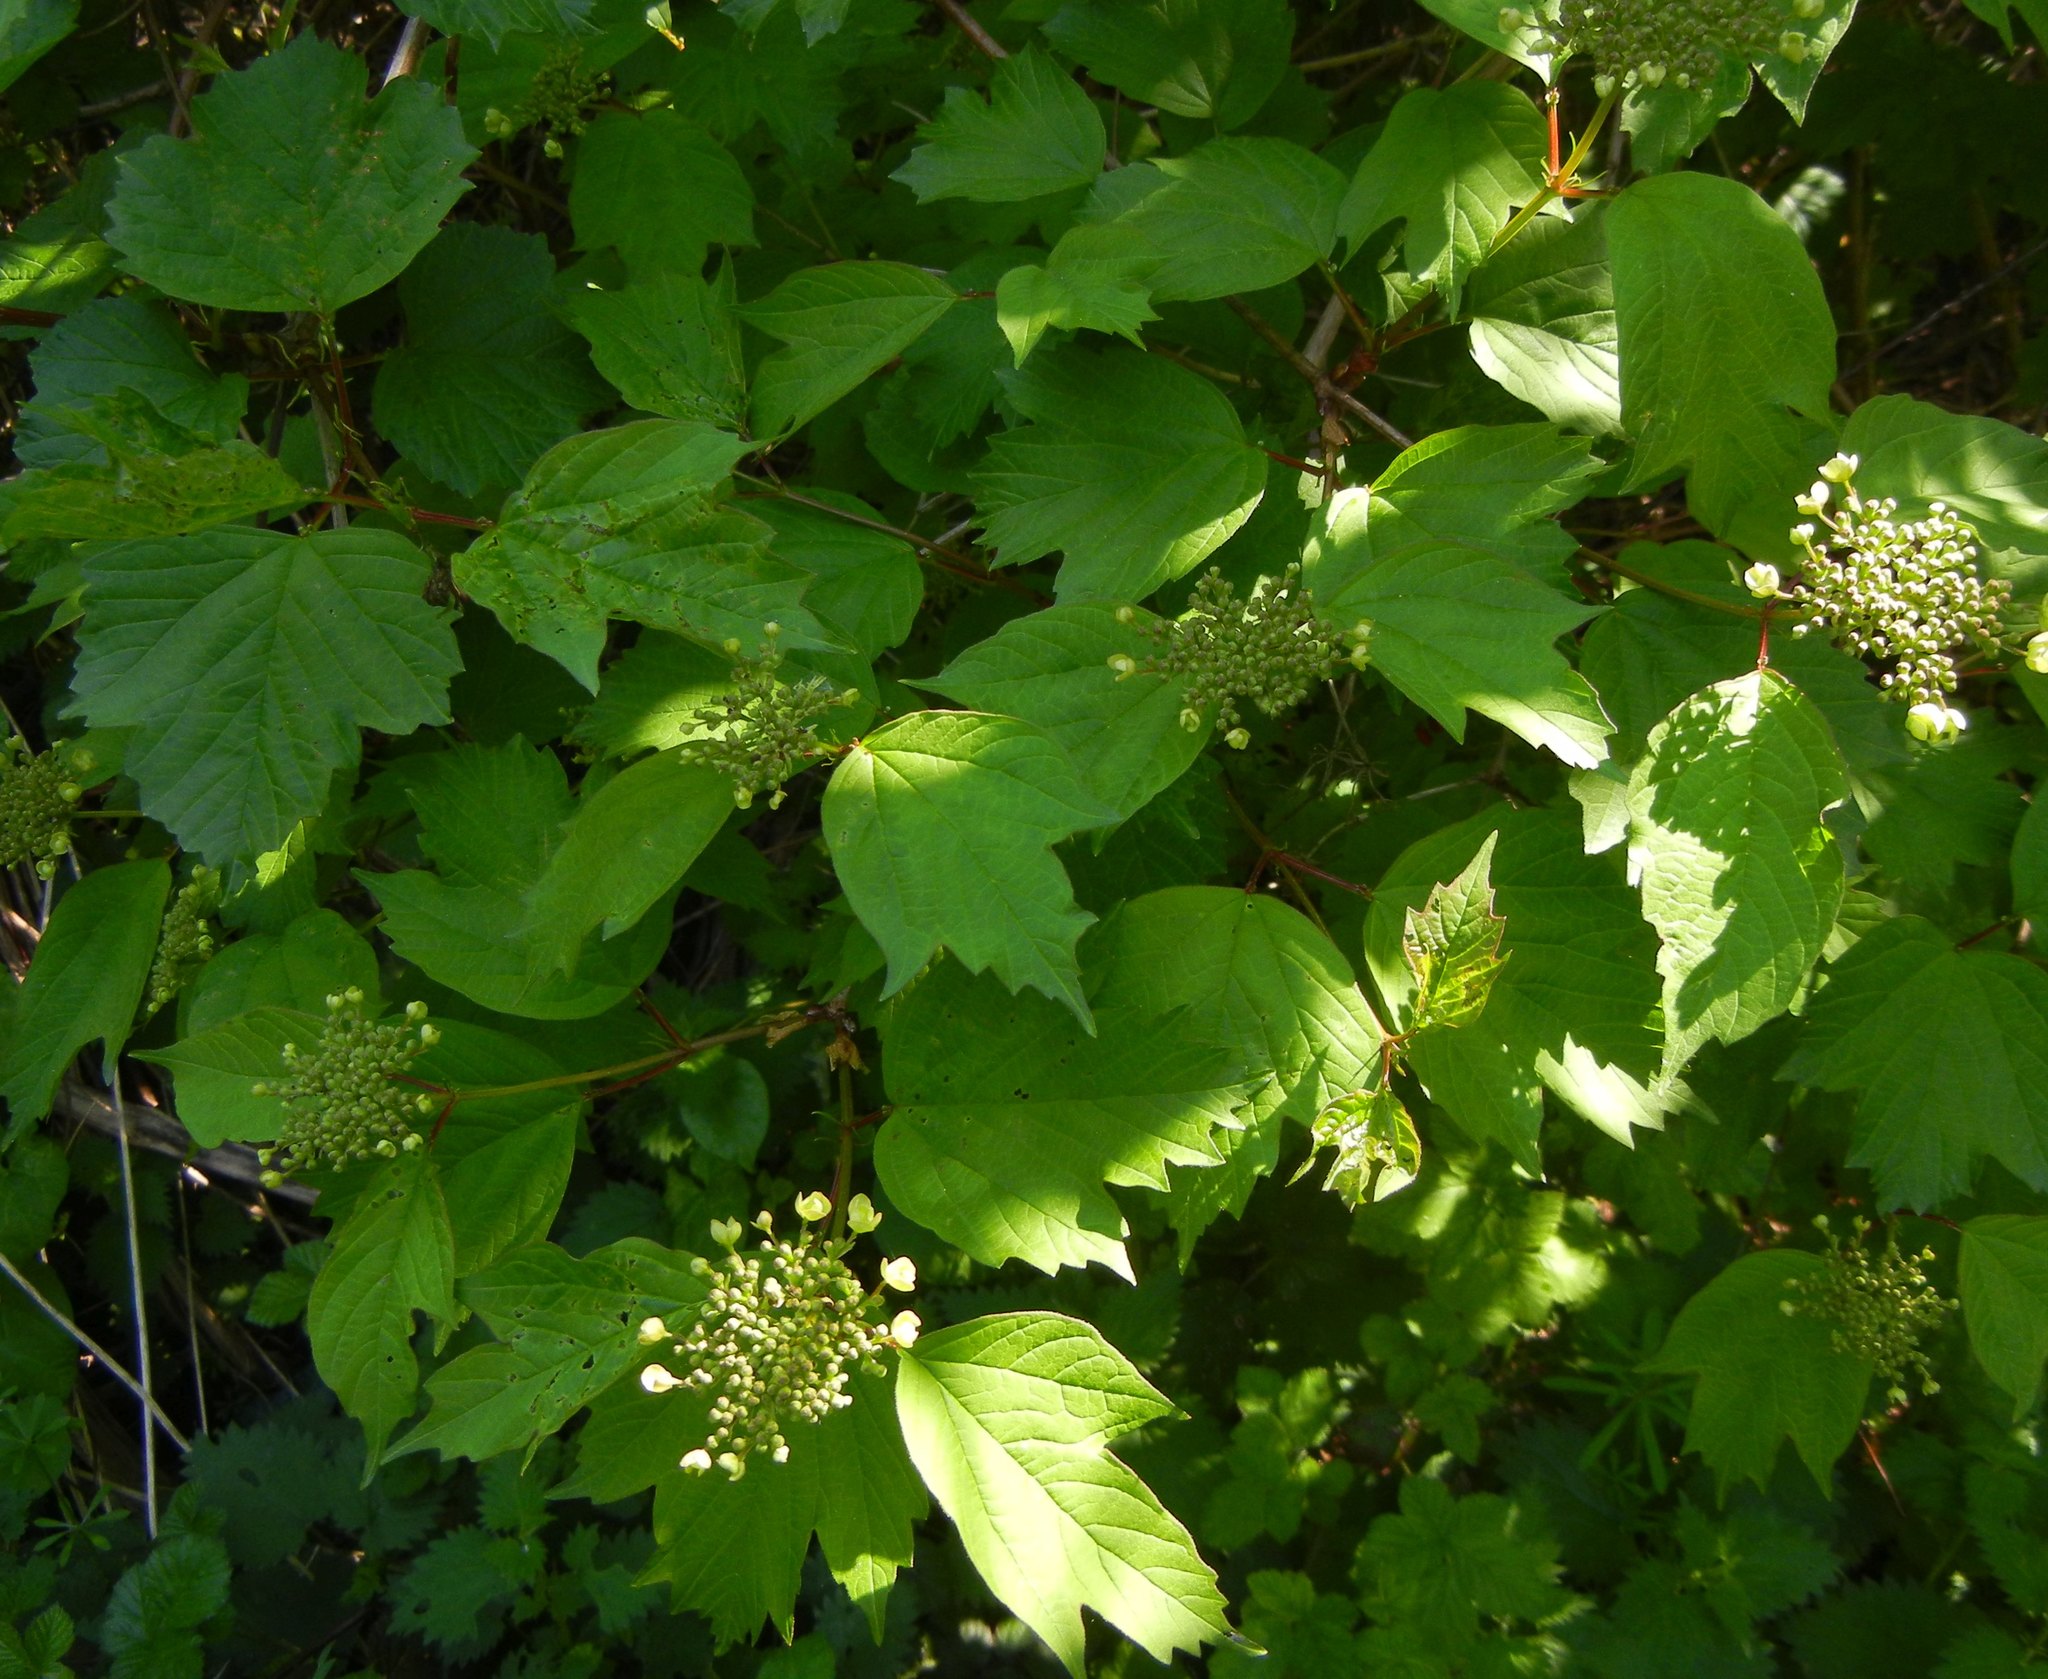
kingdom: Plantae
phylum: Tracheophyta
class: Magnoliopsida
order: Dipsacales
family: Viburnaceae
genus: Viburnum
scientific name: Viburnum opulus
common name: Guelder-rose
